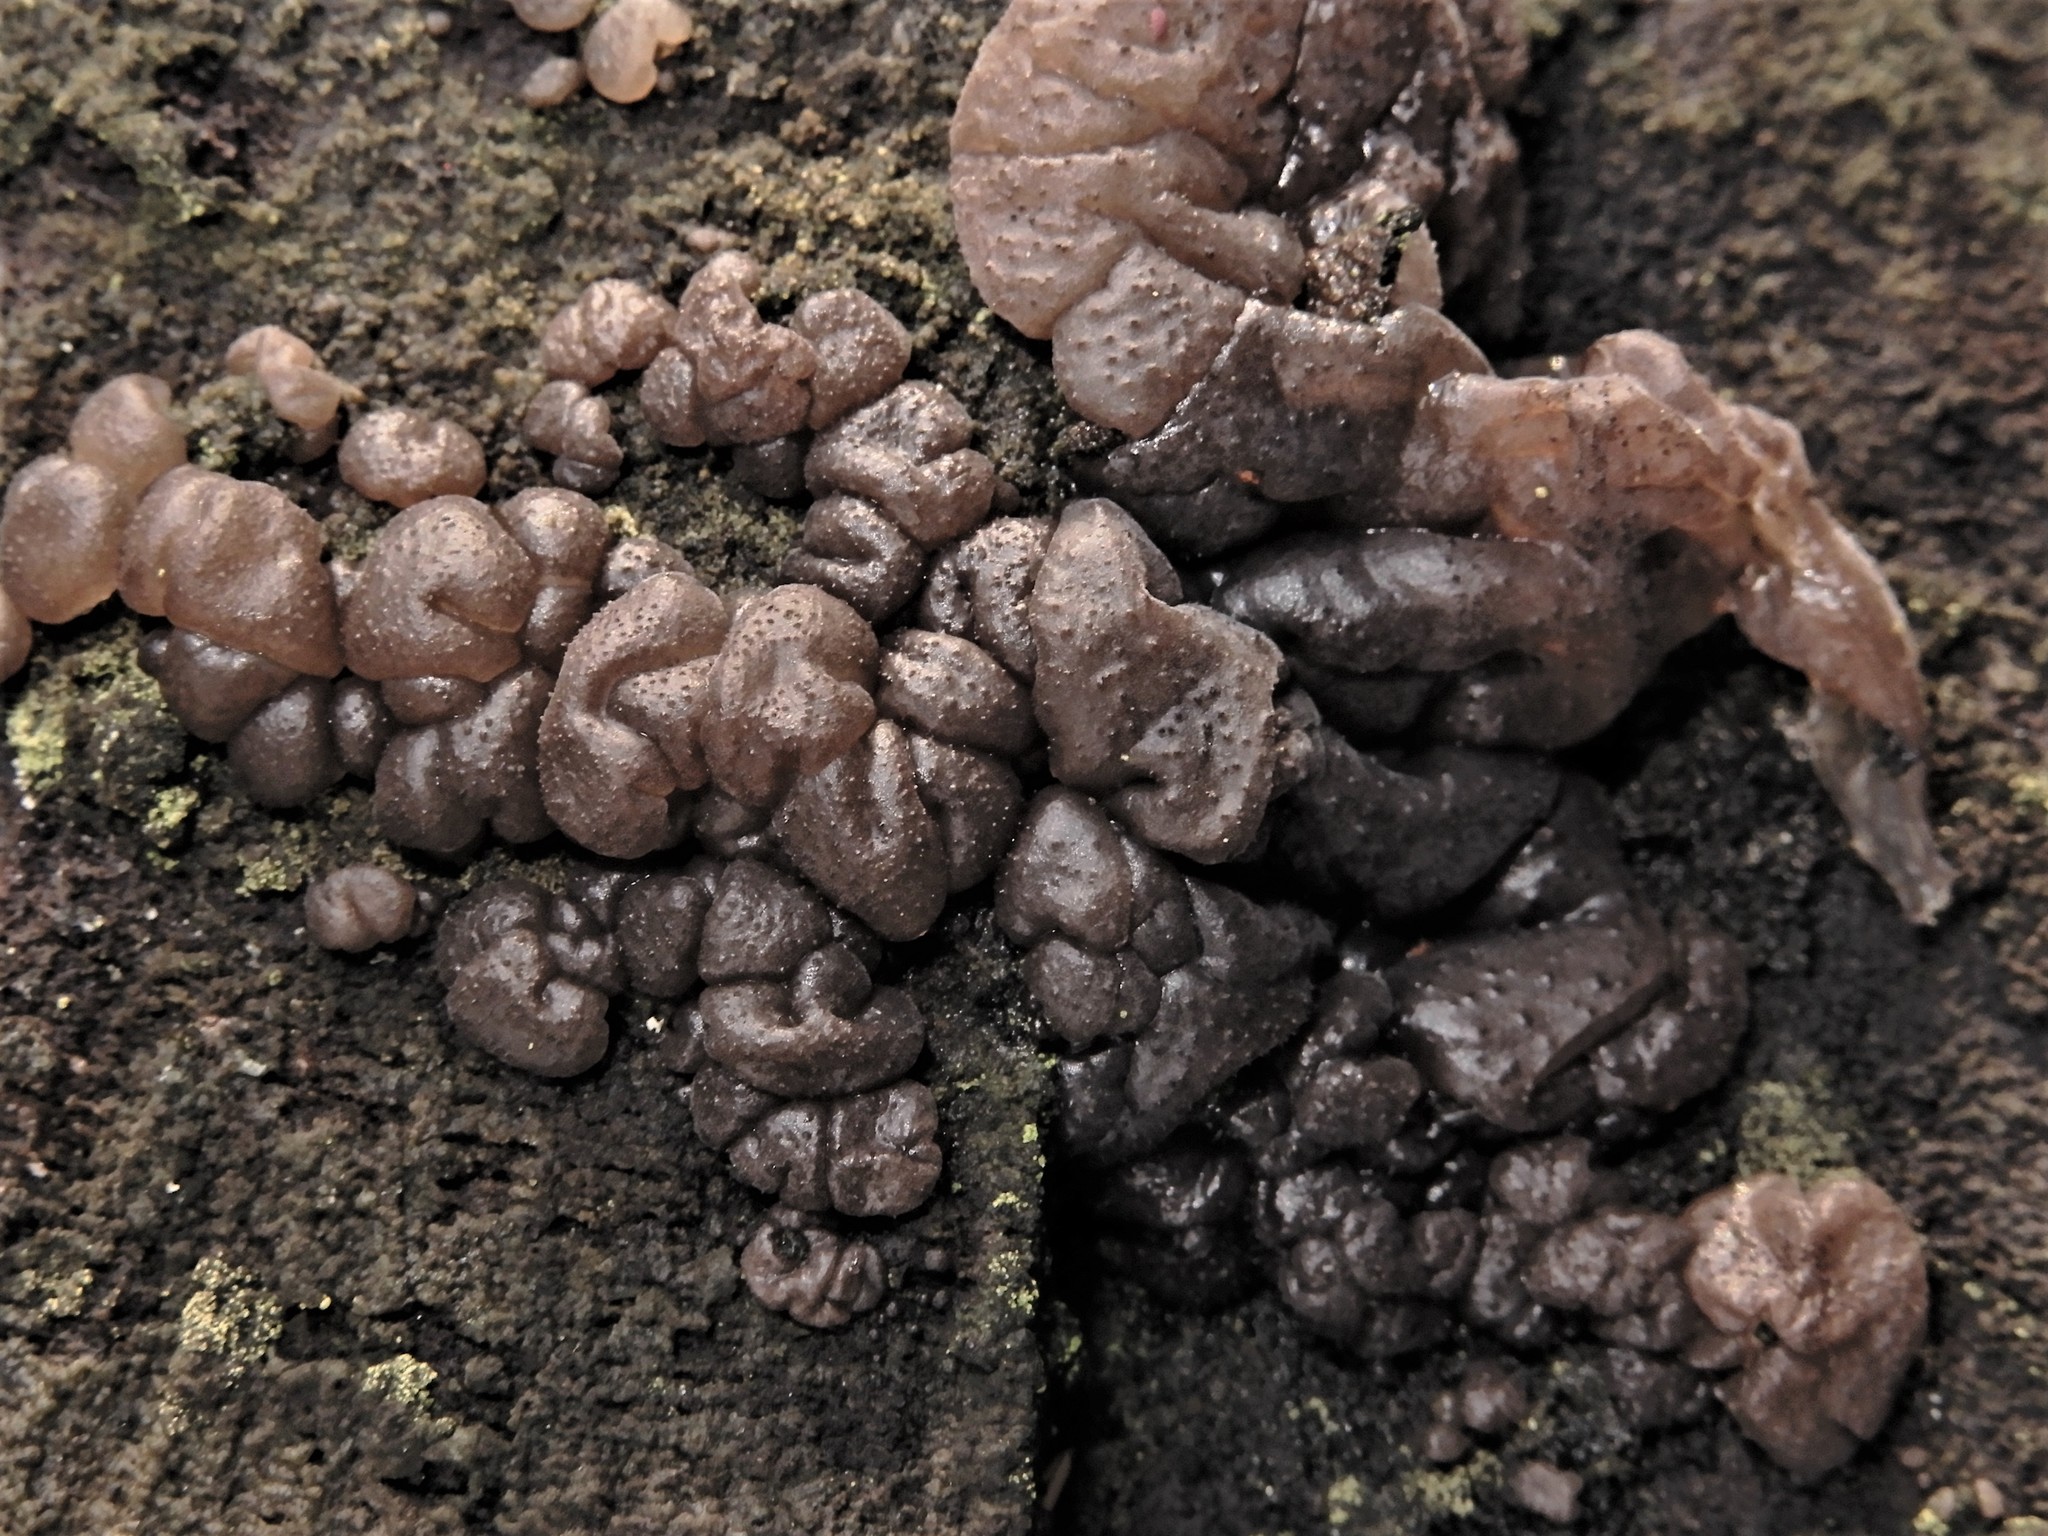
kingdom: Fungi
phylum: Basidiomycota
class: Agaricomycetes
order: Auriculariales
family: Auriculariaceae
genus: Tremellochaete
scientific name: Tremellochaete
